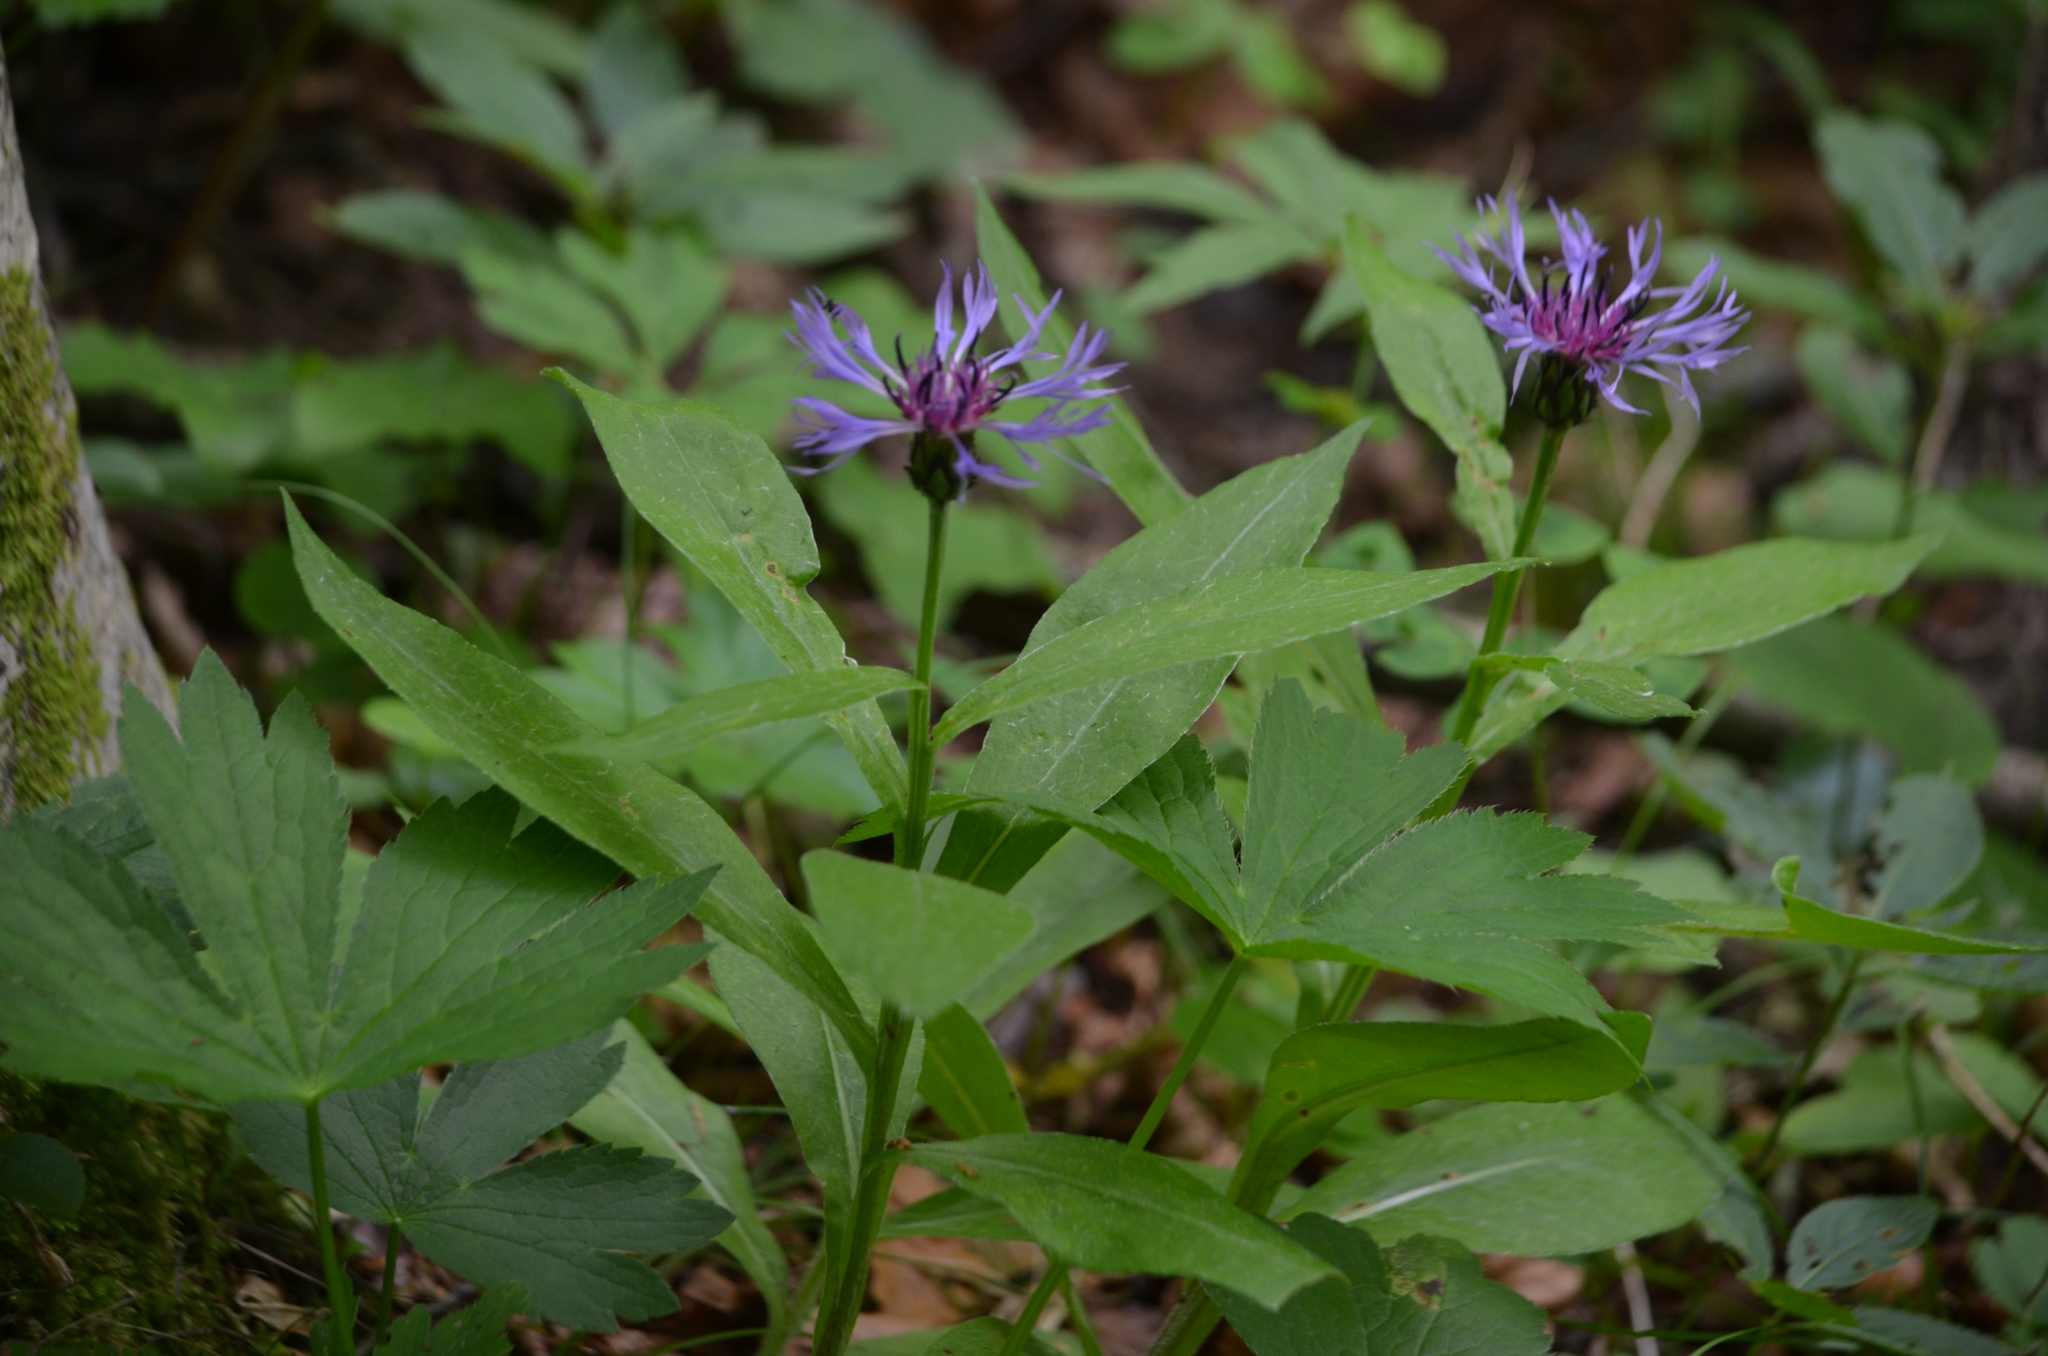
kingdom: Plantae
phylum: Tracheophyta
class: Magnoliopsida
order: Asterales
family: Asteraceae
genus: Centaurea
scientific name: Centaurea montana
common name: Perennial cornflower
